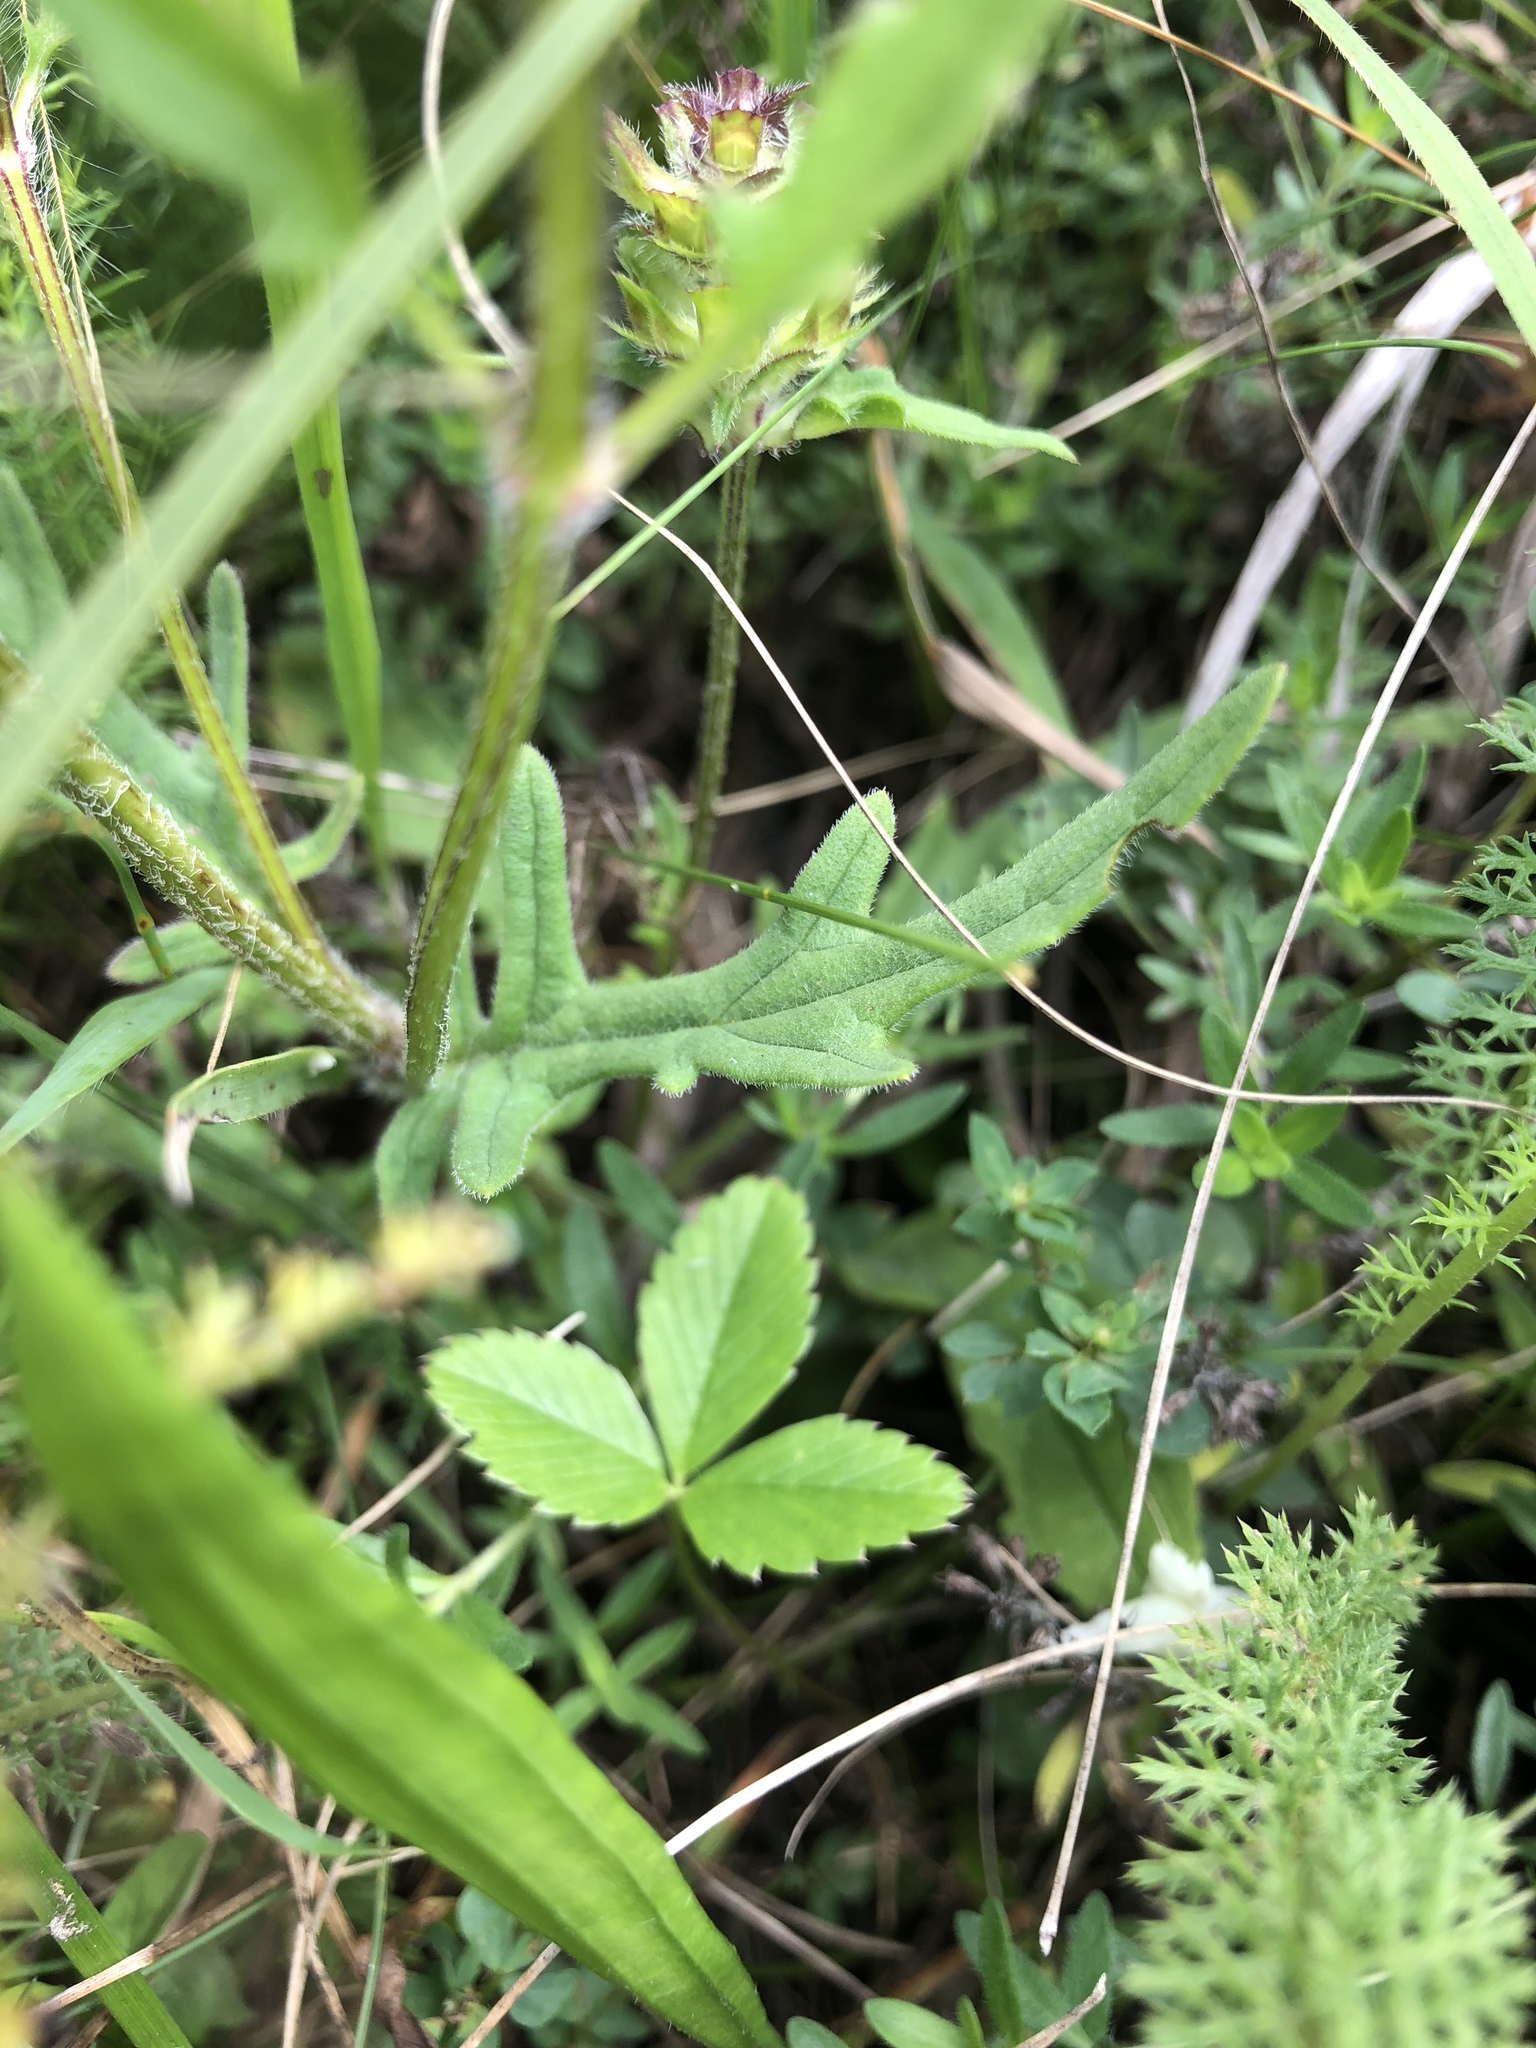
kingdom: Plantae
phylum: Tracheophyta
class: Magnoliopsida
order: Lamiales
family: Lamiaceae
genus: Prunella
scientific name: Prunella laciniata
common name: Cut-leaved selfheal
